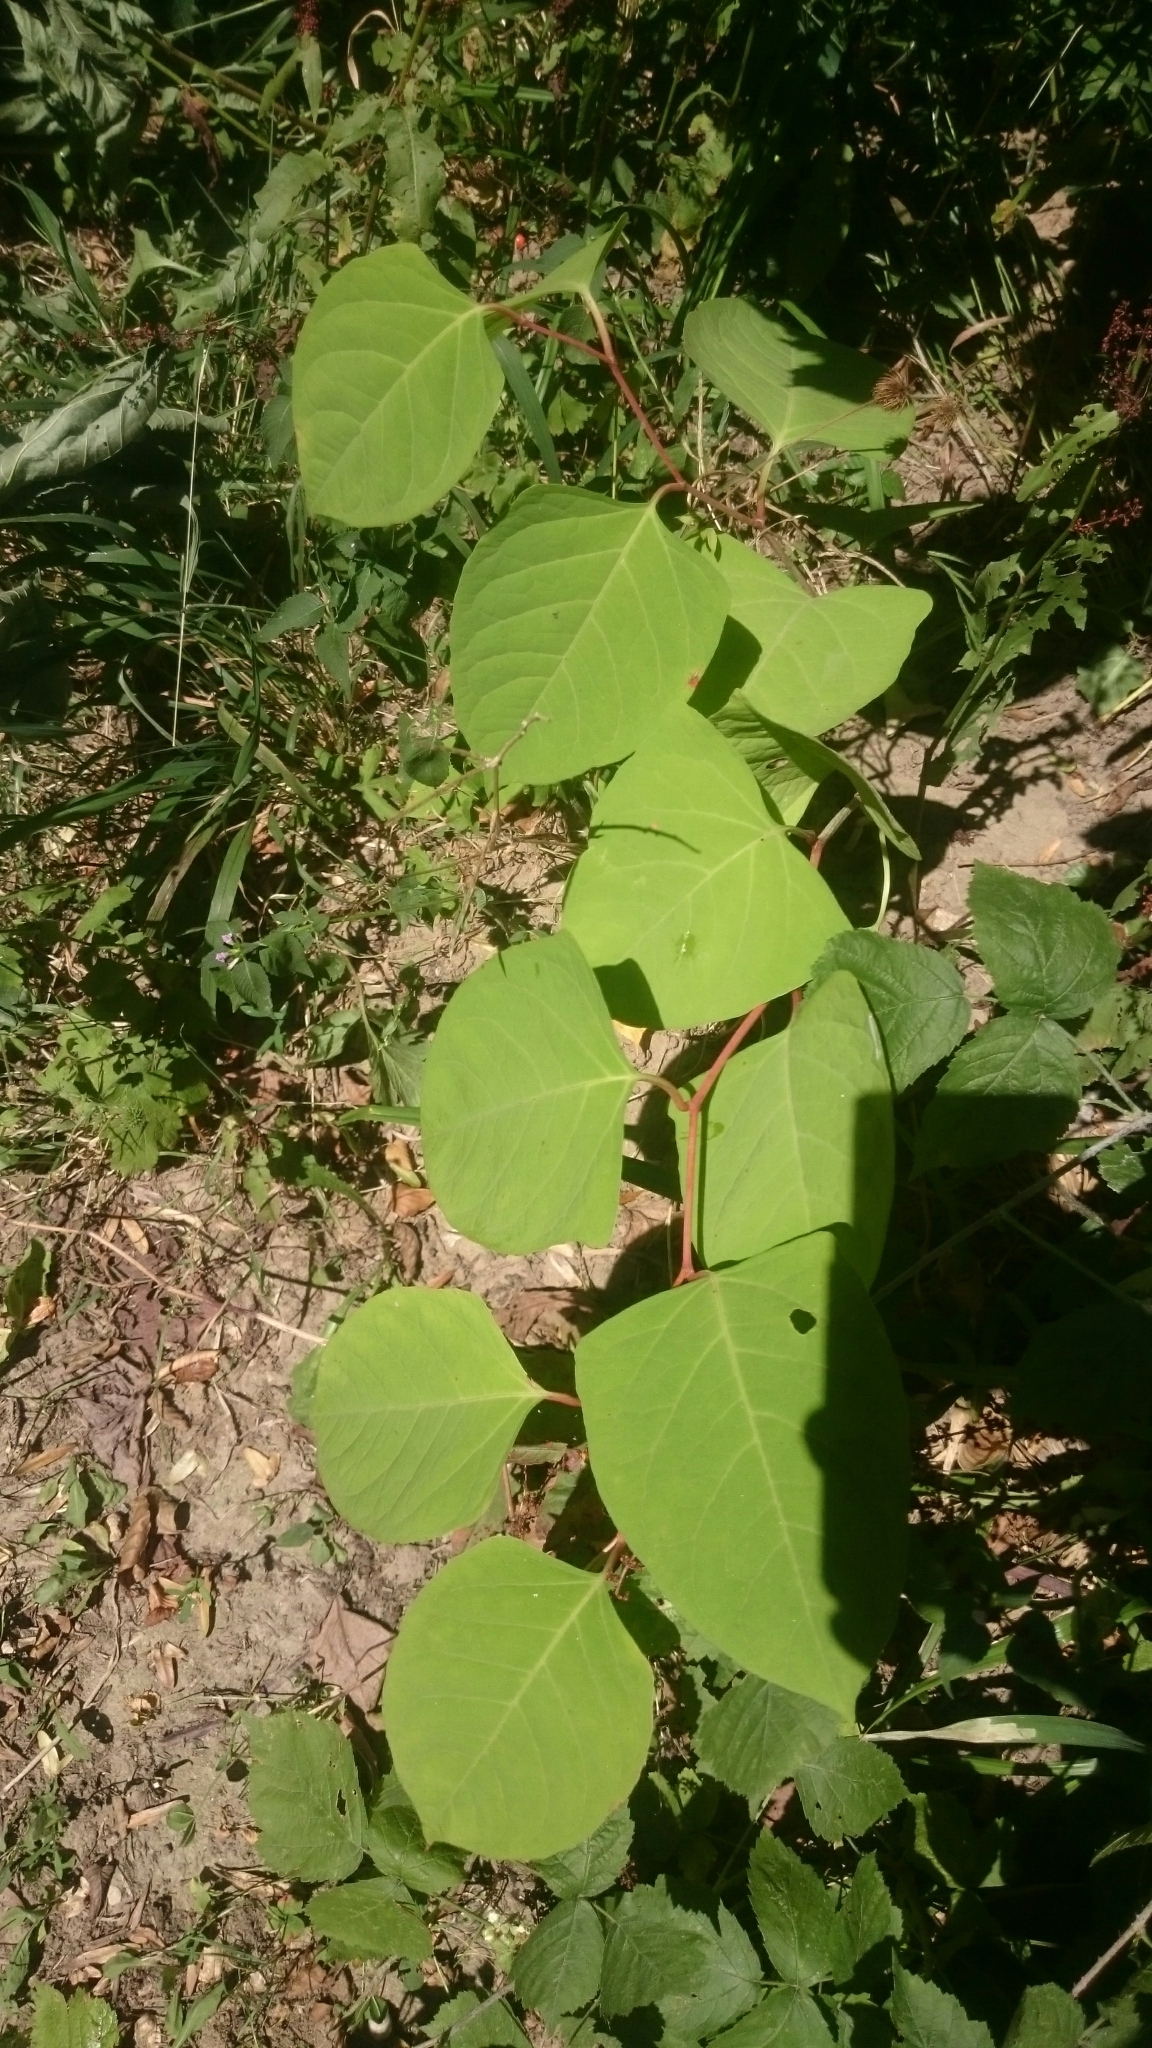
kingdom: Plantae
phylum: Tracheophyta
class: Magnoliopsida
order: Caryophyllales
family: Polygonaceae
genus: Reynoutria
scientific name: Reynoutria japonica
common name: Japanese knotweed
